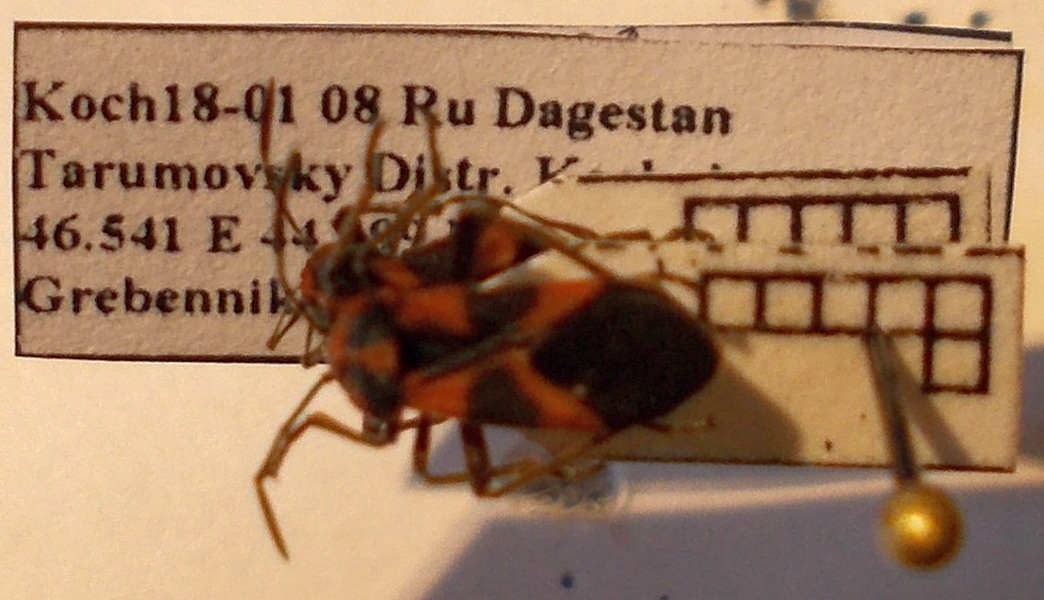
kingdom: Animalia
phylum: Arthropoda
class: Insecta
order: Hemiptera
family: Lygaeidae
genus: Tropidothorax
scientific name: Tropidothorax leucopterus
